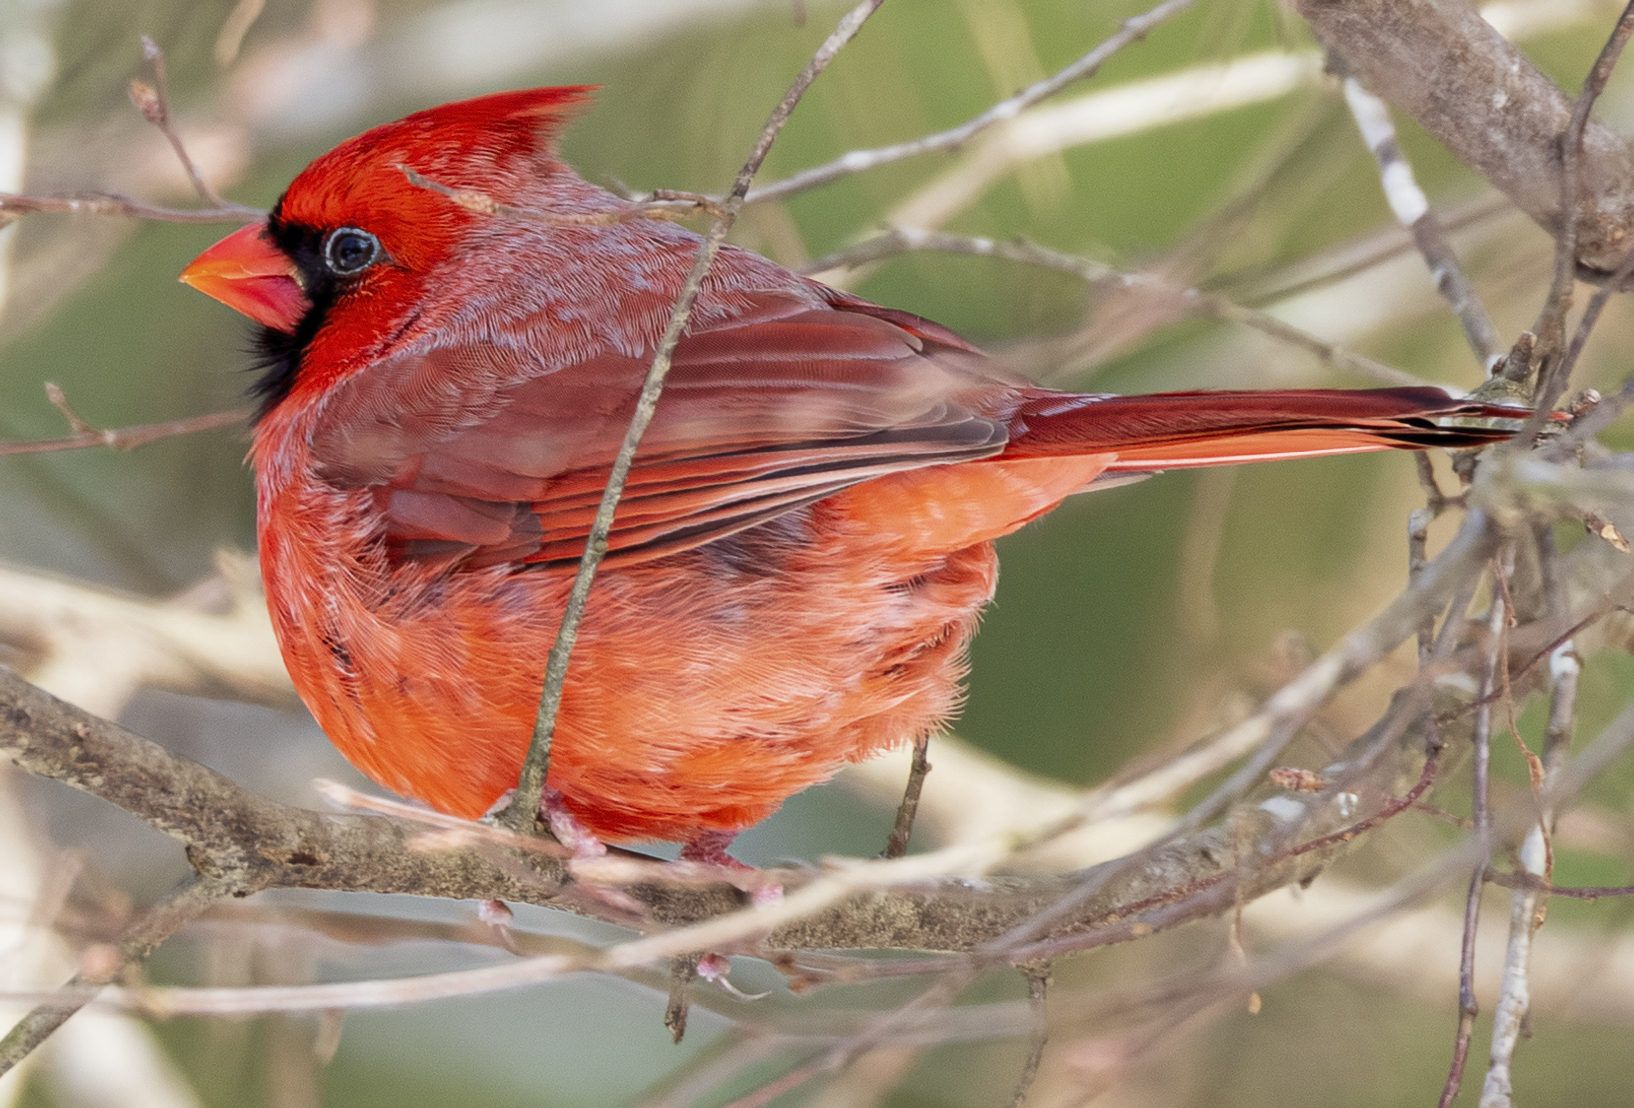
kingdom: Animalia
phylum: Chordata
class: Aves
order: Passeriformes
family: Cardinalidae
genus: Cardinalis
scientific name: Cardinalis cardinalis
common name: Northern cardinal
